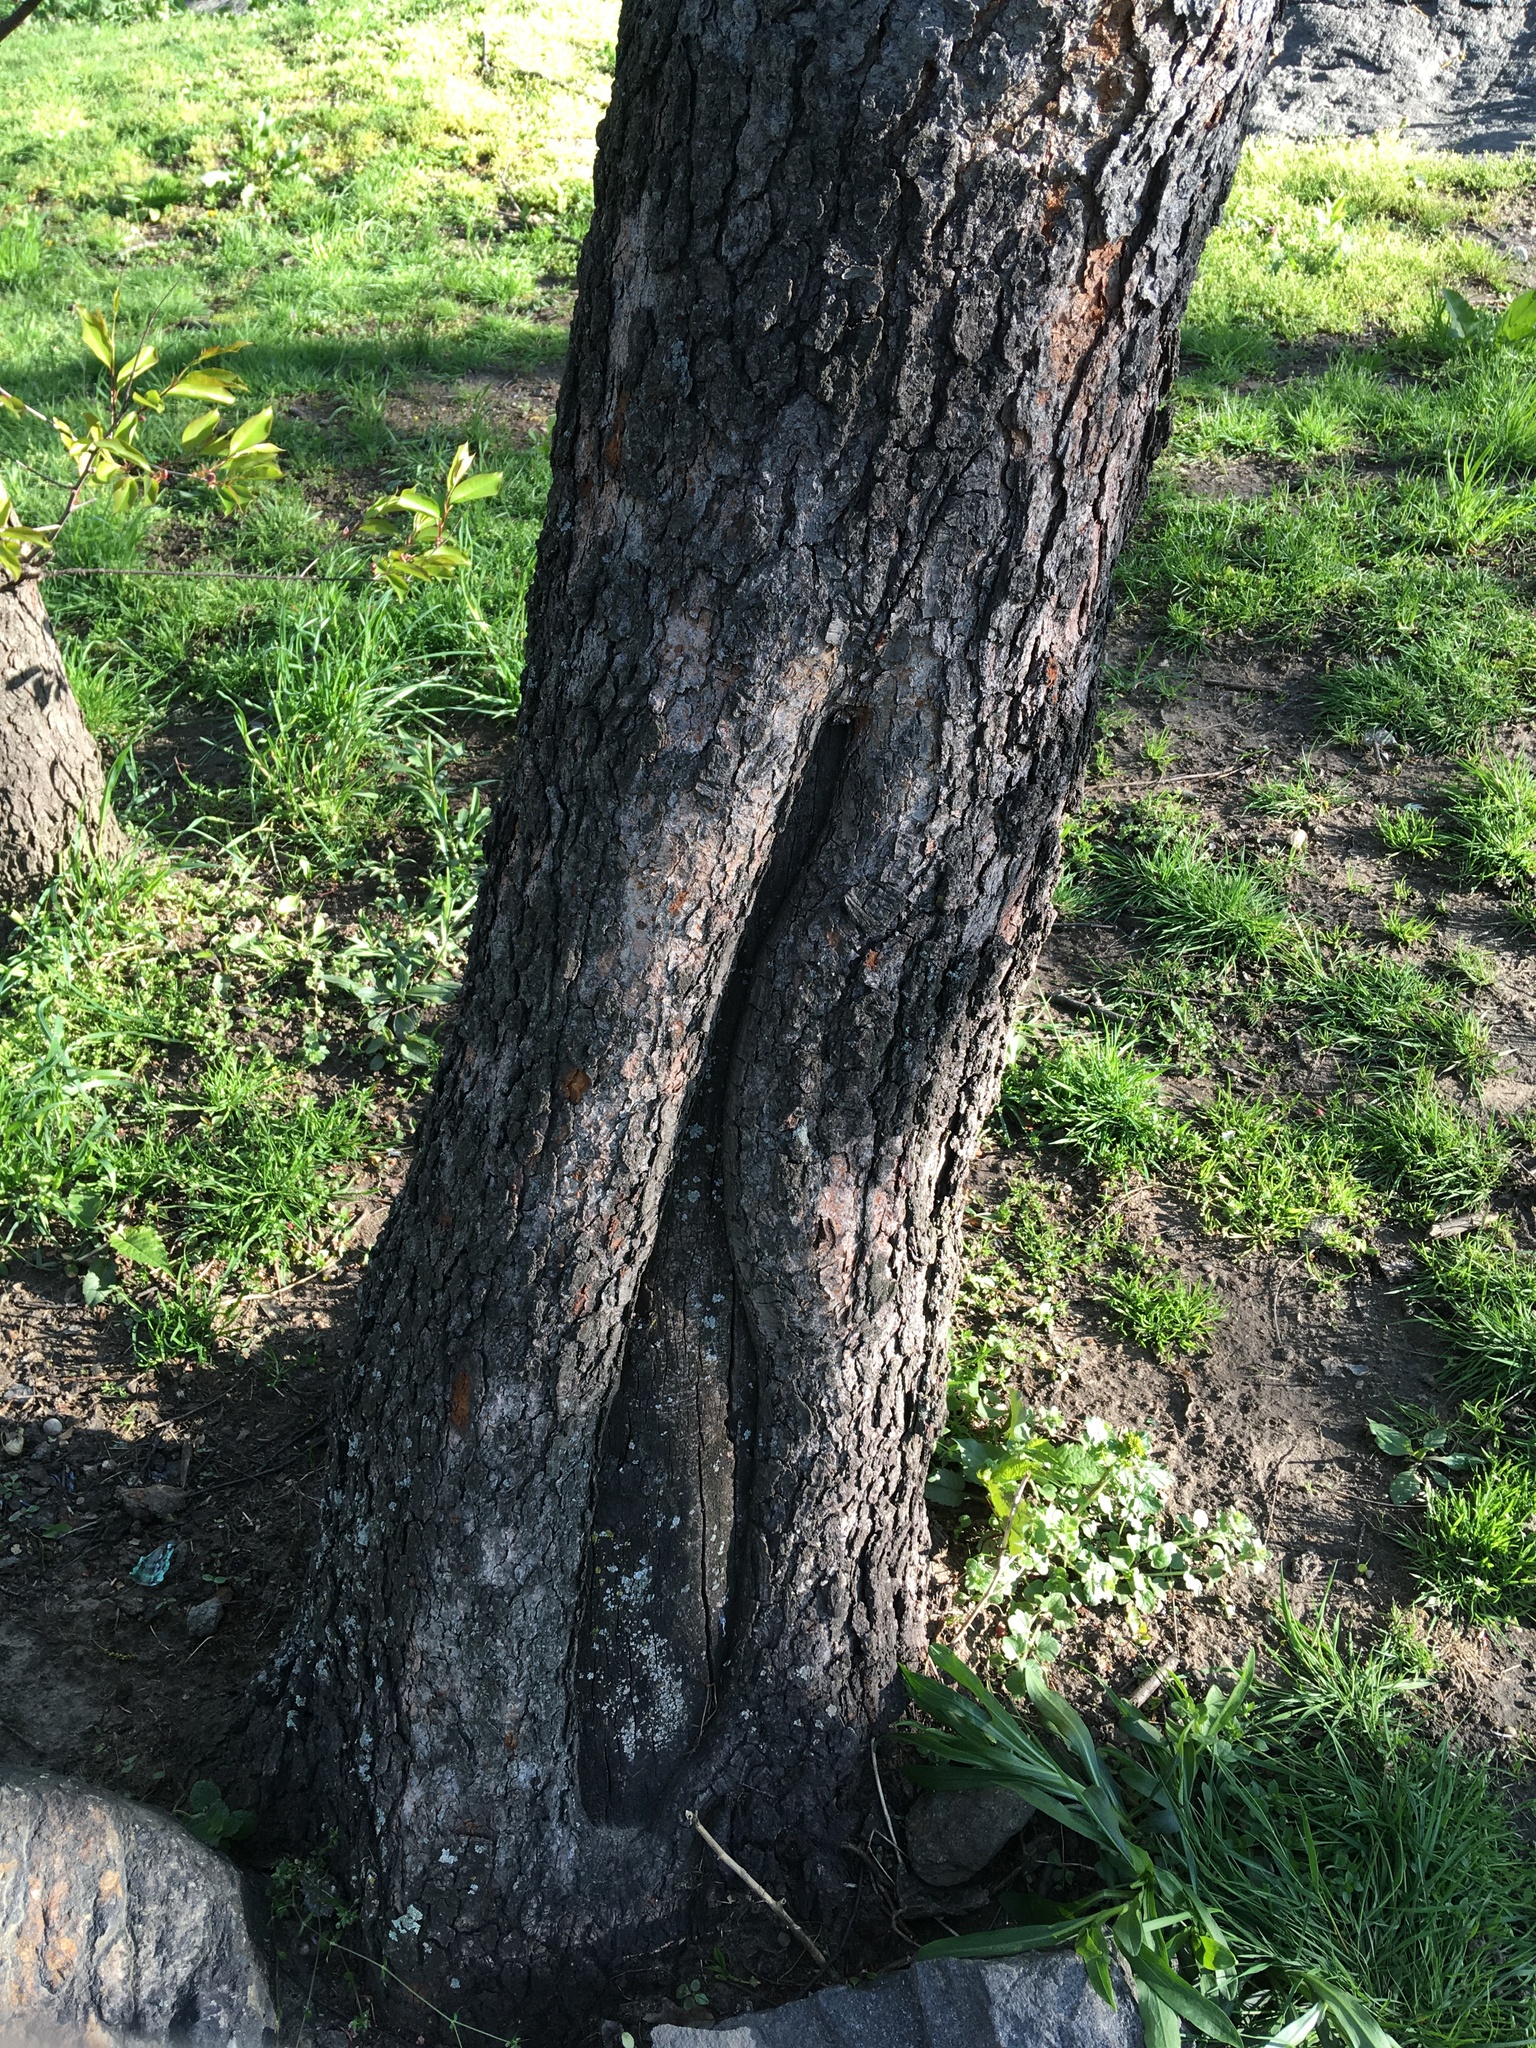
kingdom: Plantae
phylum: Tracheophyta
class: Magnoliopsida
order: Rosales
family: Rosaceae
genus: Prunus
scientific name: Prunus serotina
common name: Black cherry
